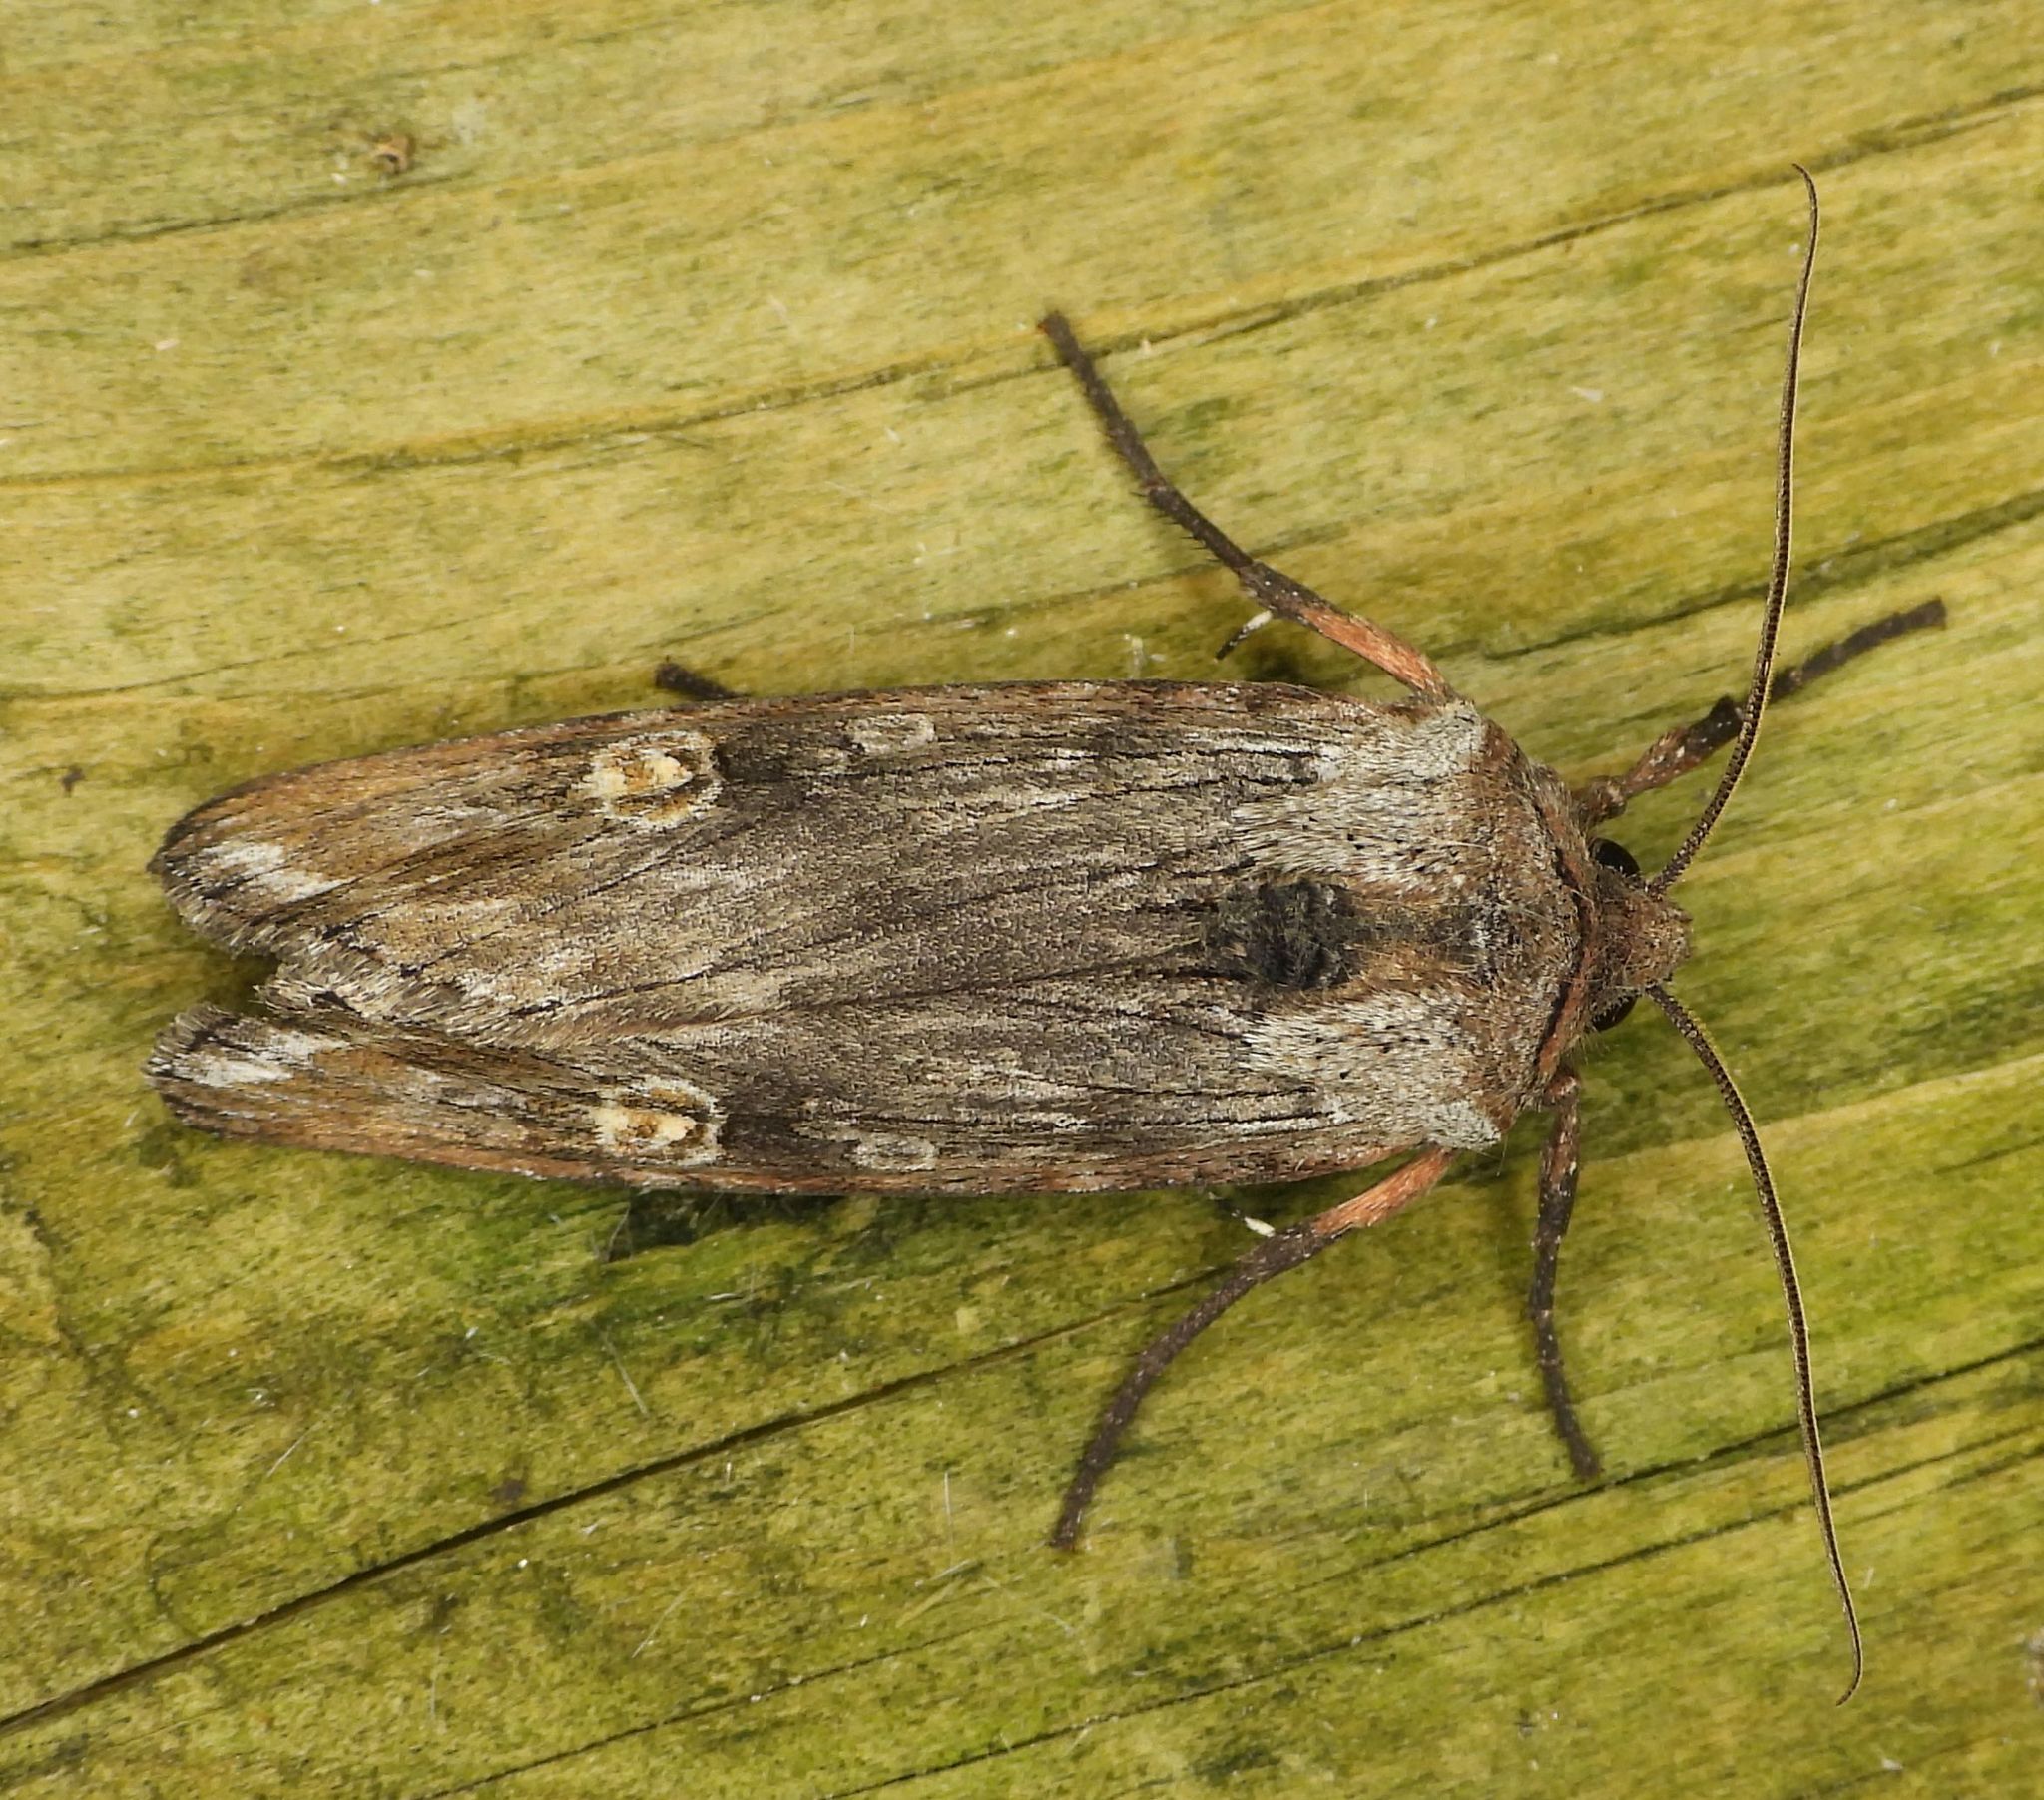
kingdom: Animalia
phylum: Arthropoda
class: Insecta
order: Lepidoptera
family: Noctuidae
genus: Xylena
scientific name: Xylena germana
